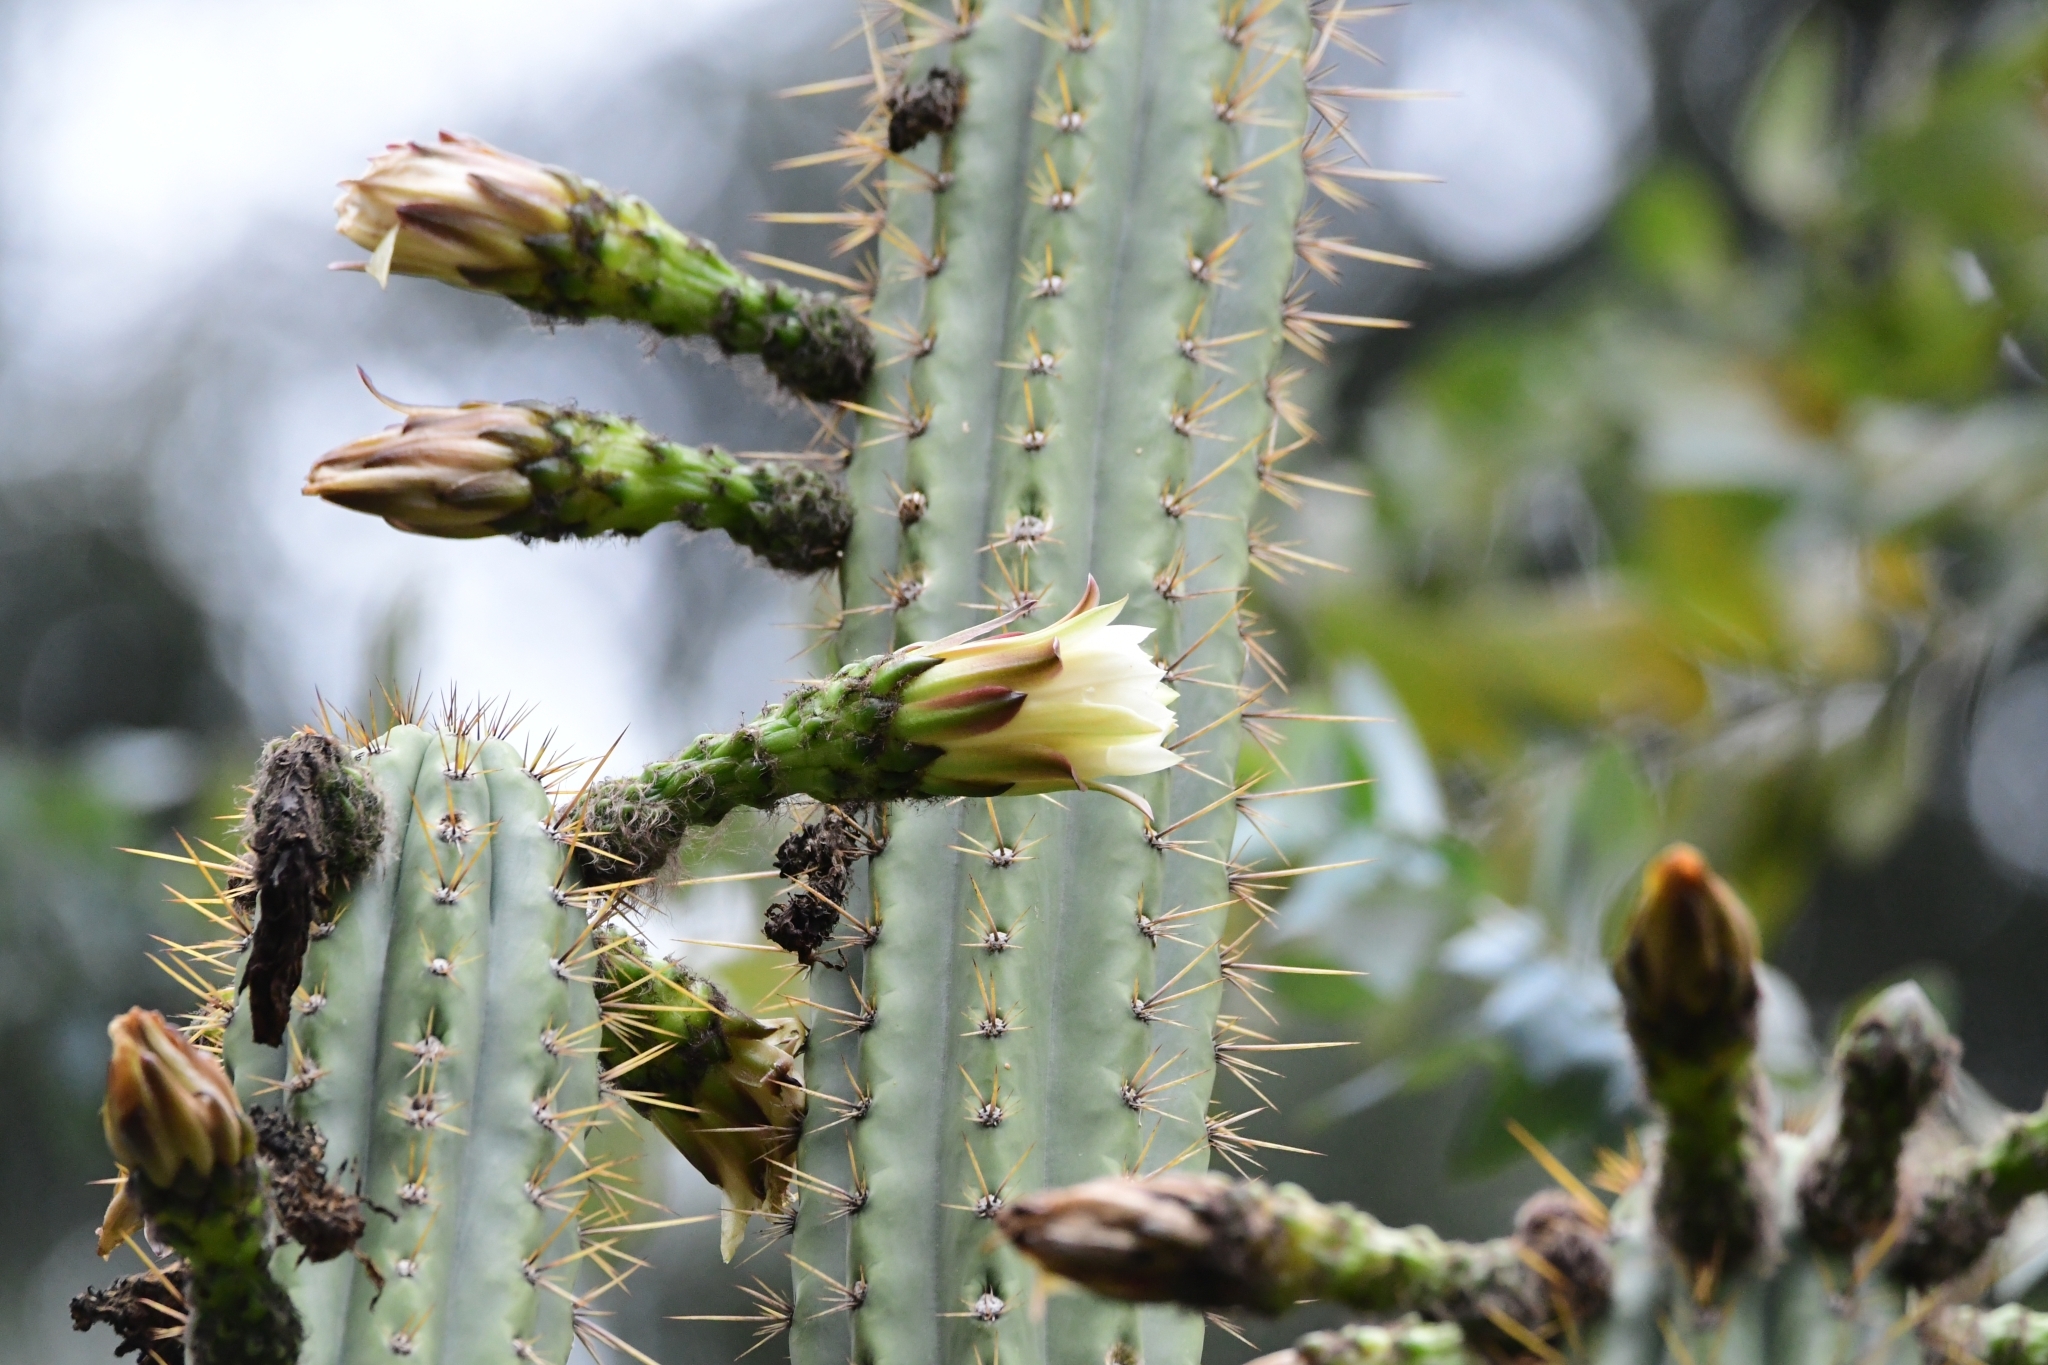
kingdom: Plantae
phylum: Tracheophyta
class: Magnoliopsida
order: Caryophyllales
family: Cactaceae
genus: Trichocereus
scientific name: Trichocereus cuzcoensis
